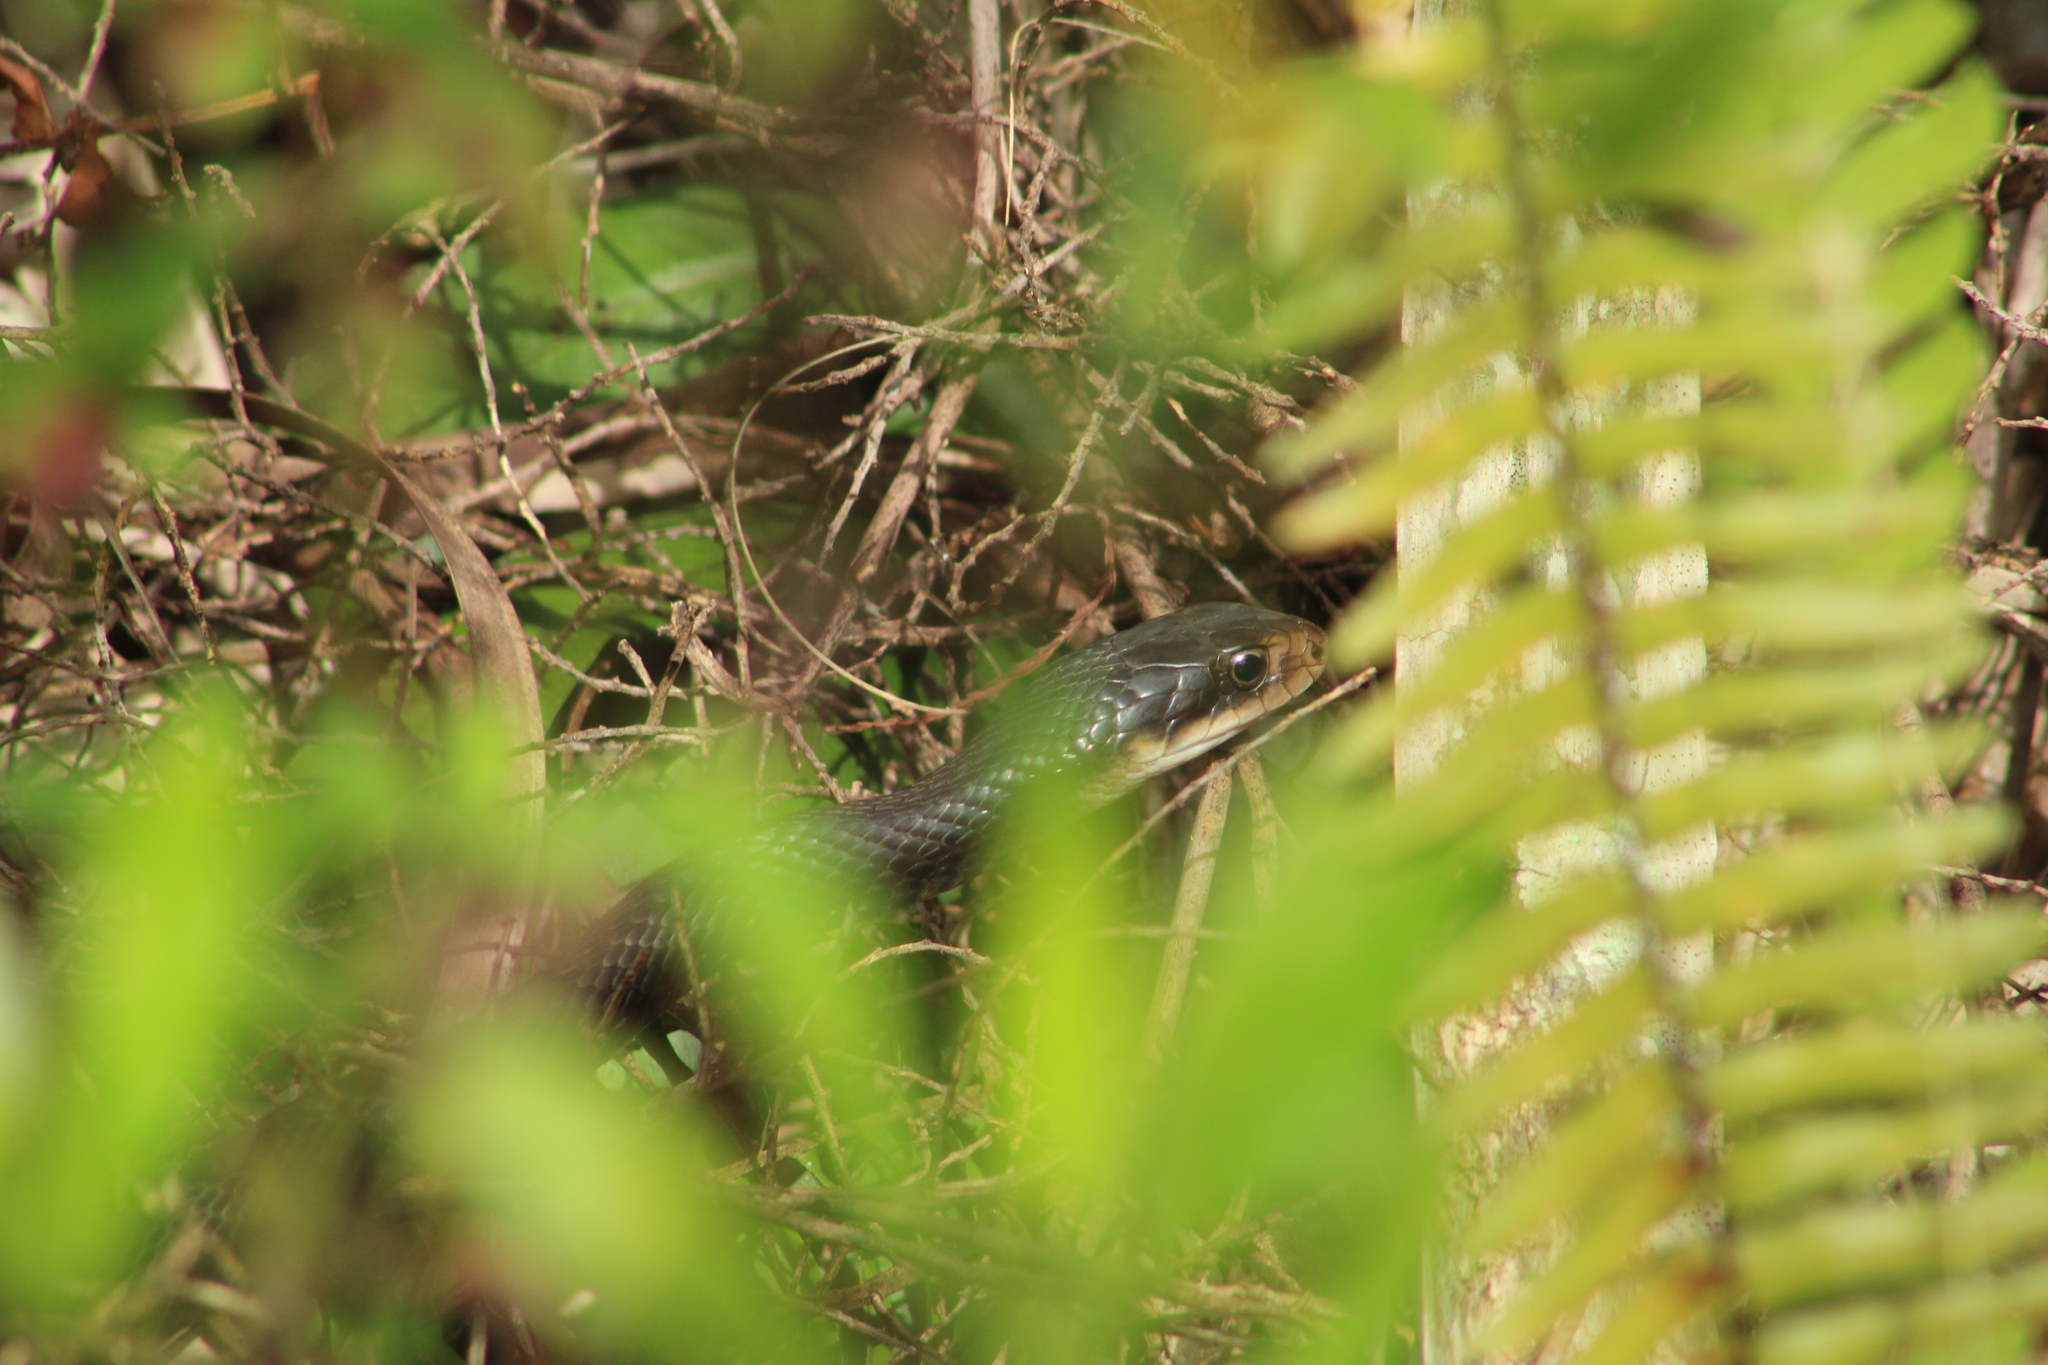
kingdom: Animalia
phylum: Chordata
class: Squamata
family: Colubridae
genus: Coluber
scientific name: Coluber constrictor
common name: Eastern racer
